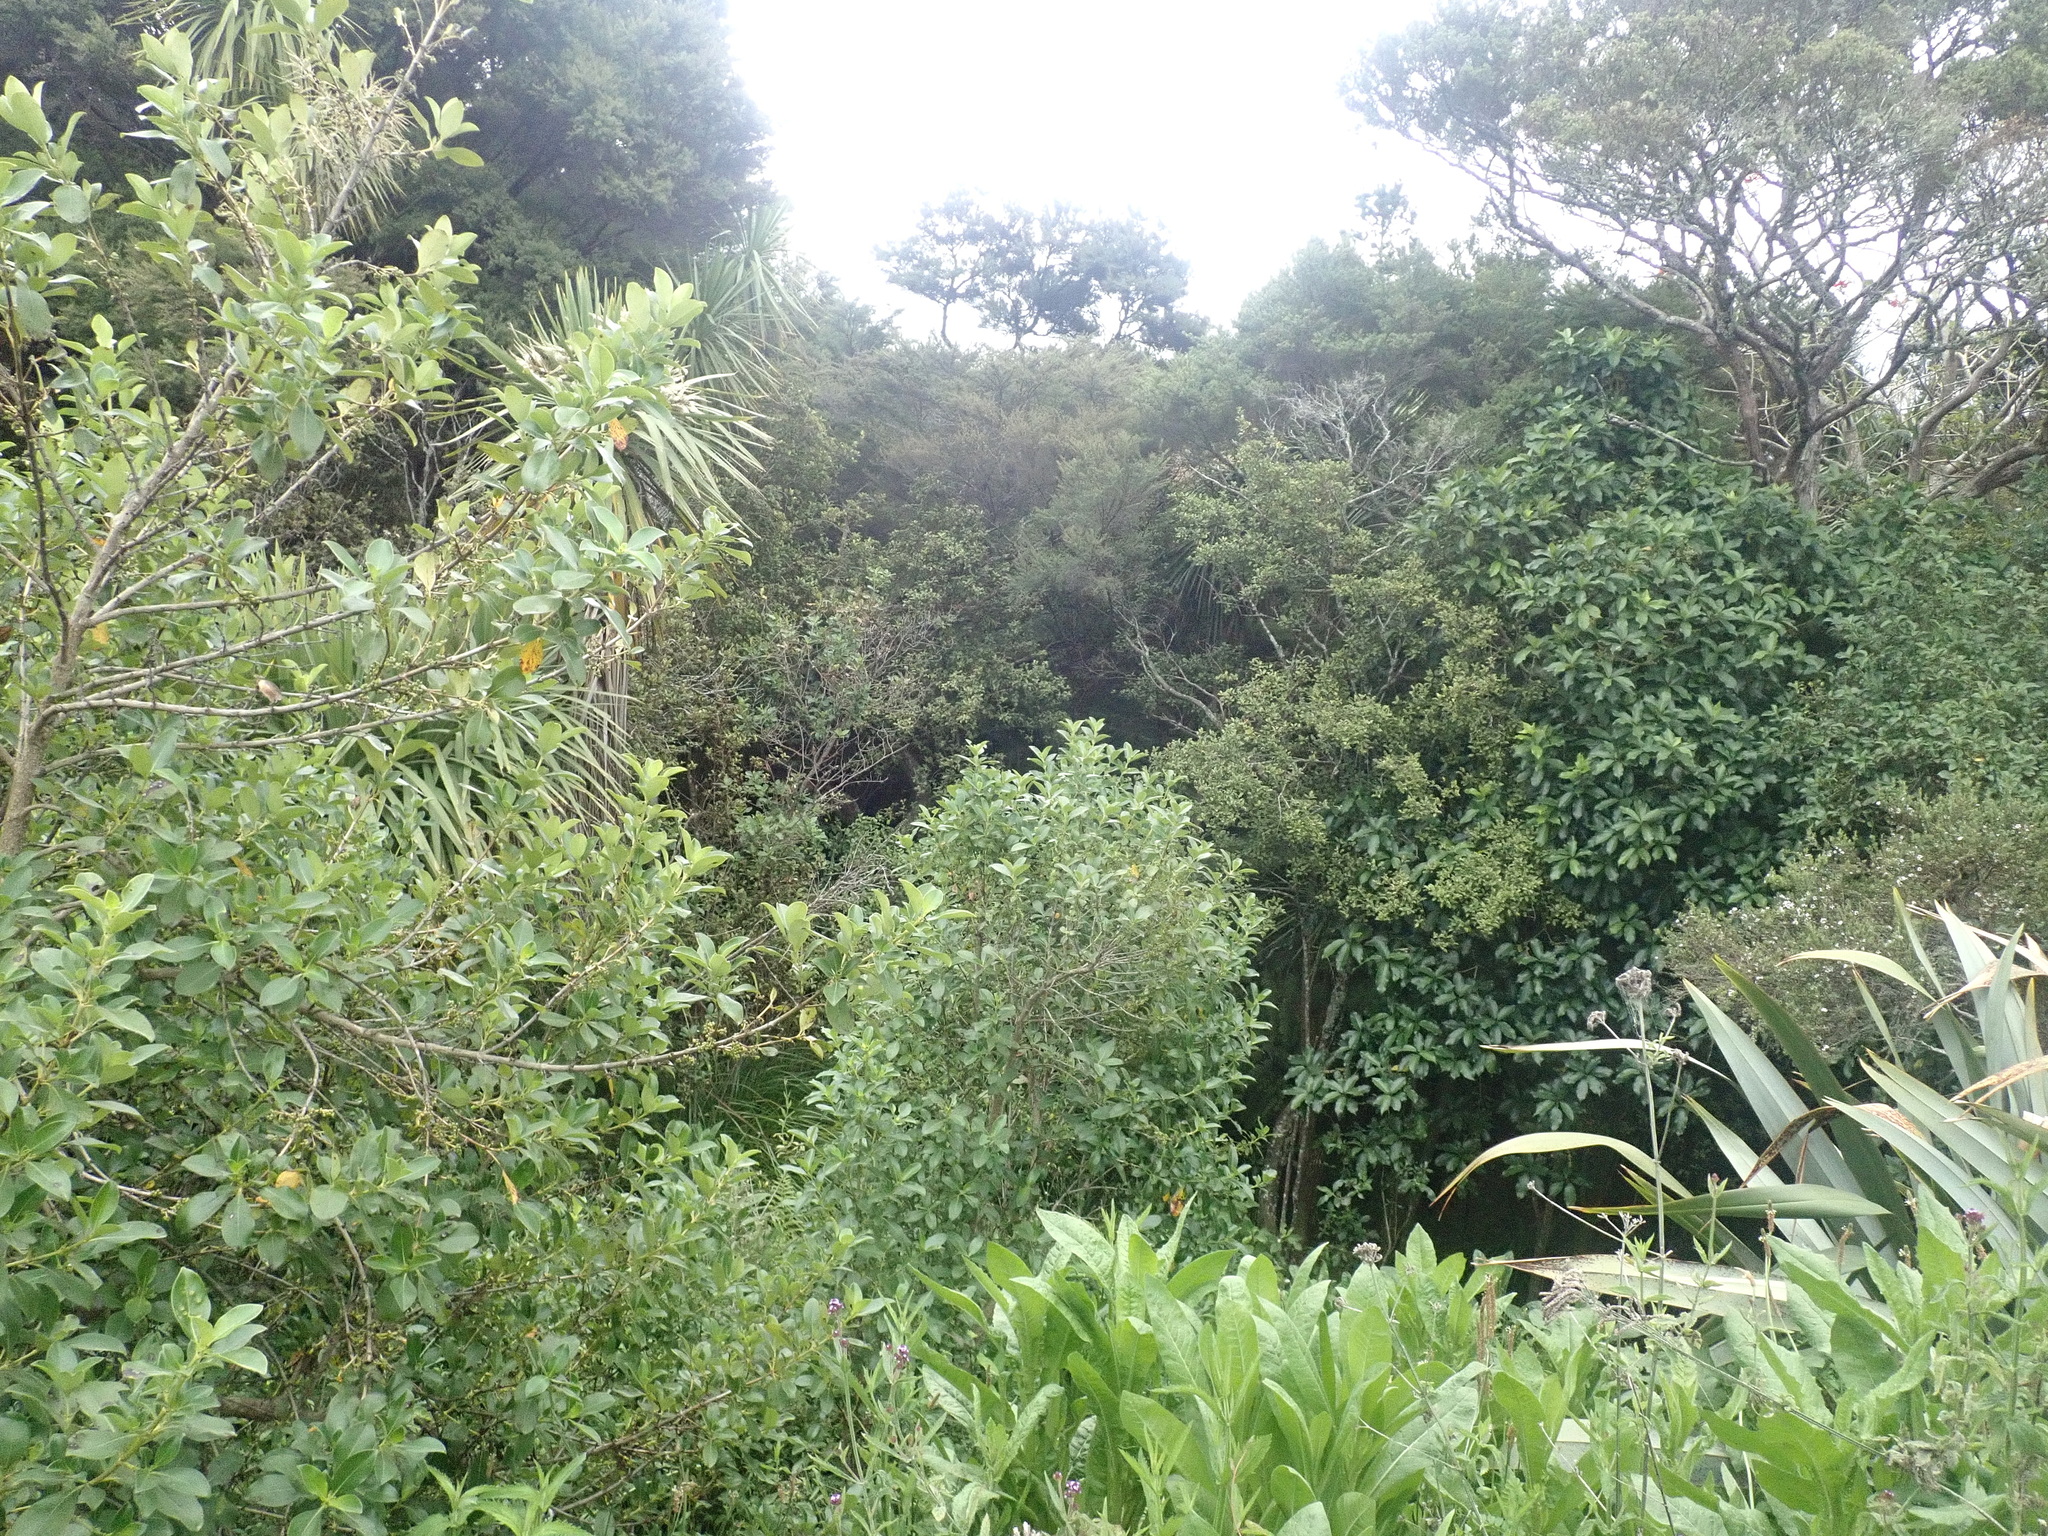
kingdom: Plantae
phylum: Tracheophyta
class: Magnoliopsida
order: Gentianales
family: Rubiaceae
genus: Coprosma
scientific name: Coprosma robusta
